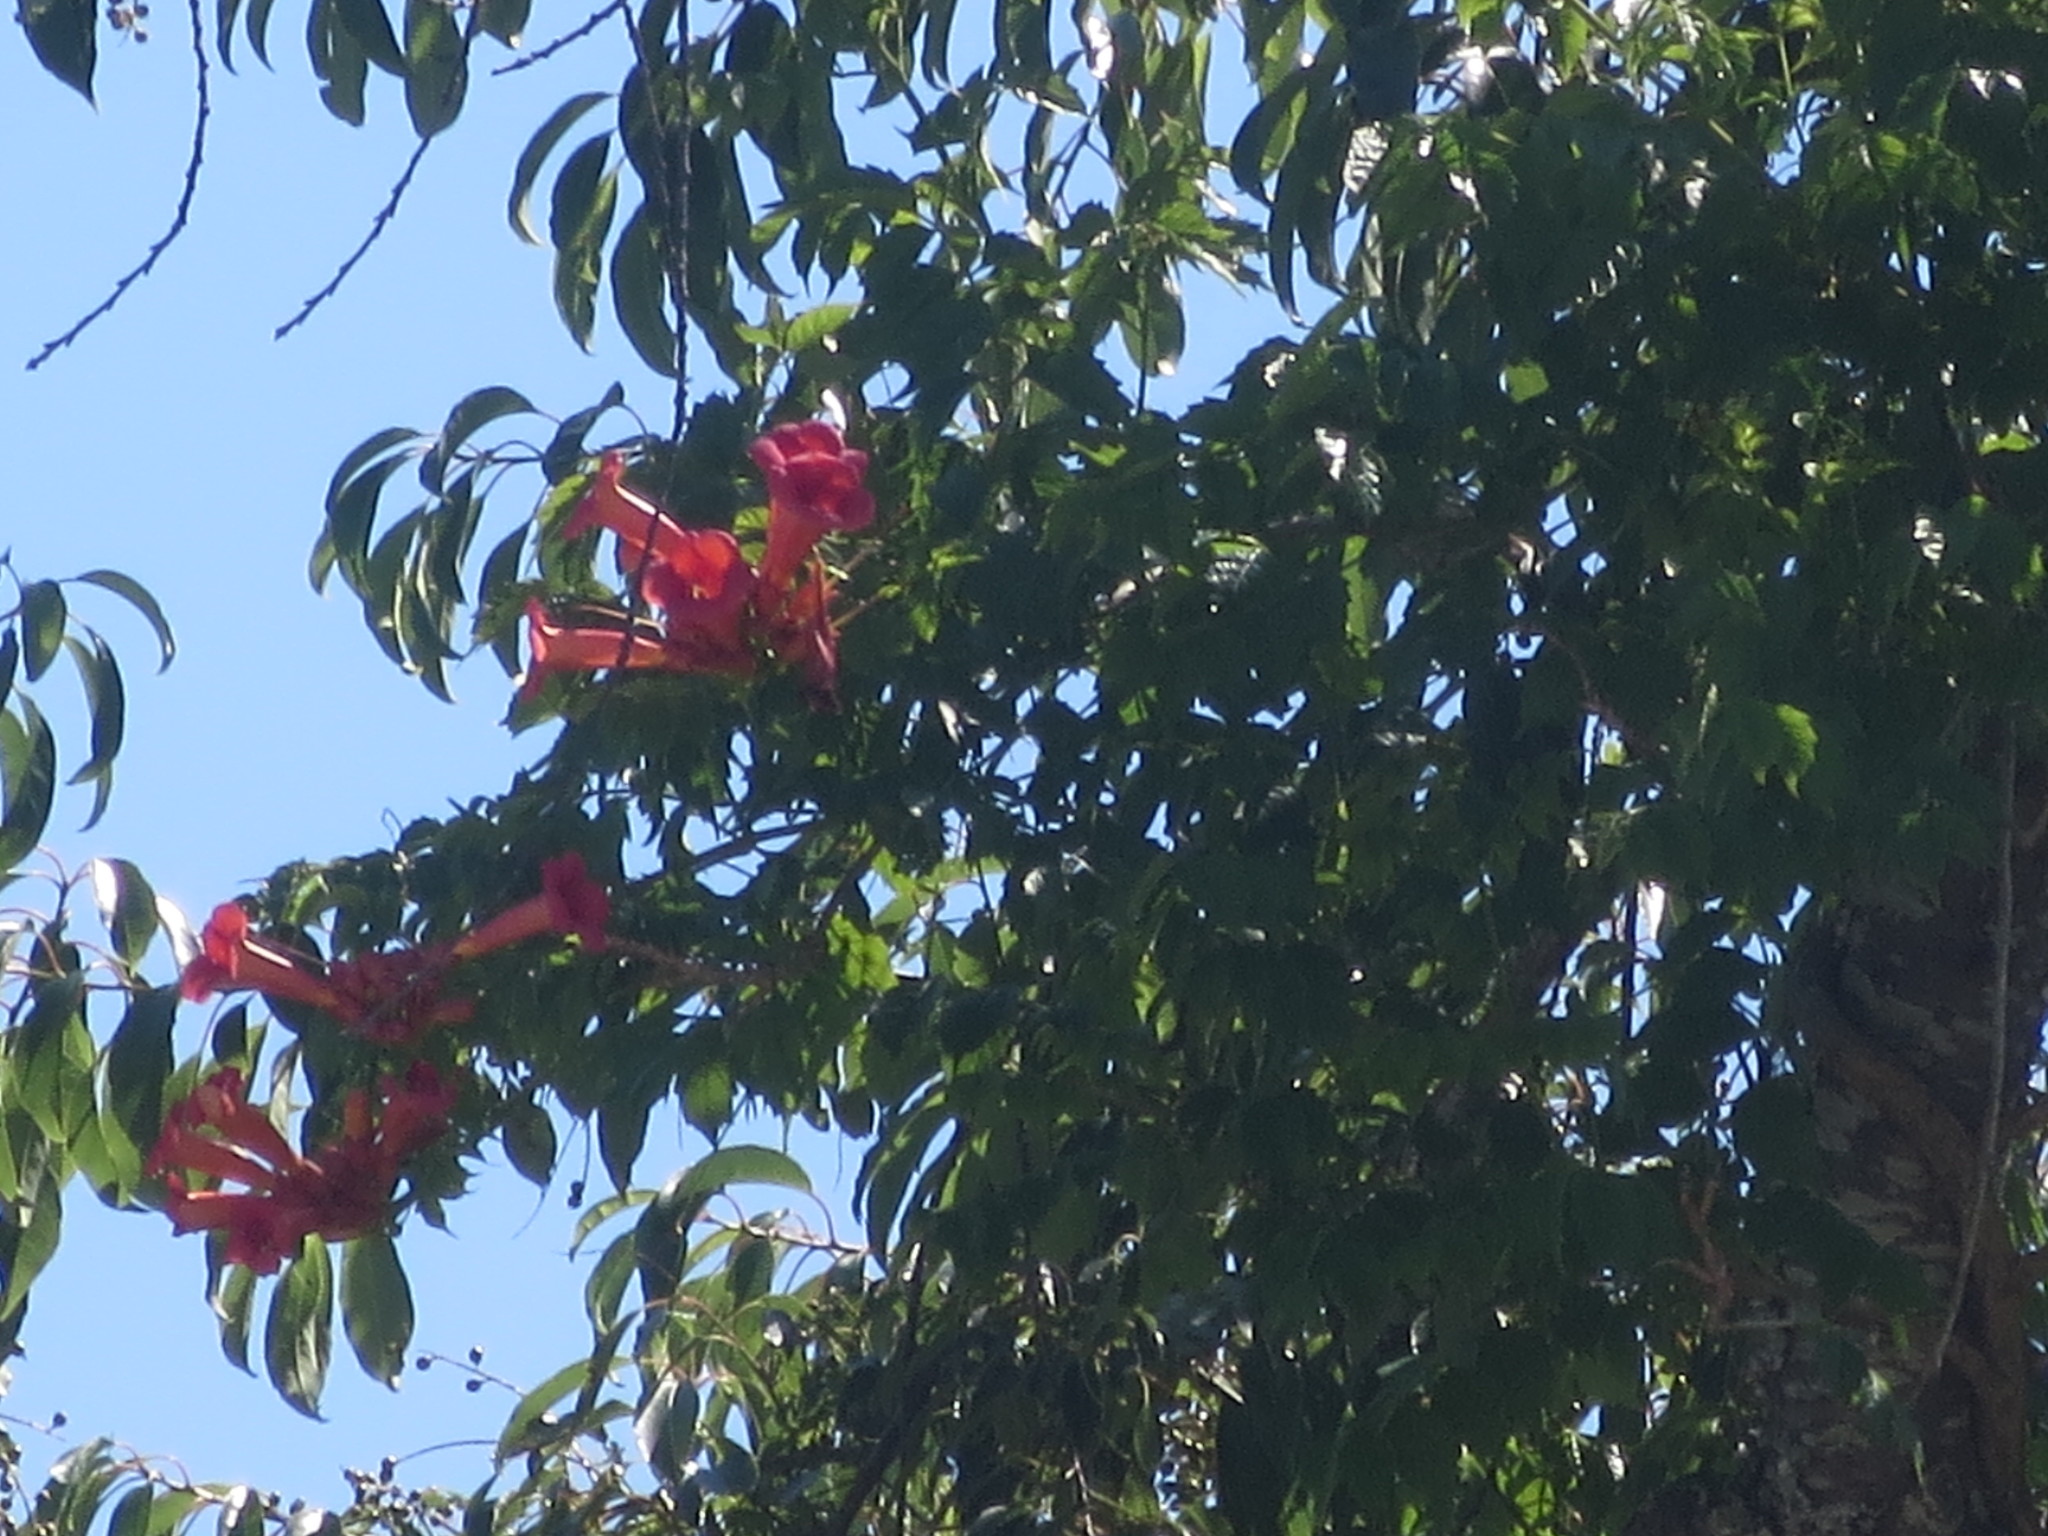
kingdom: Plantae
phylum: Tracheophyta
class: Magnoliopsida
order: Lamiales
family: Bignoniaceae
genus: Campsis
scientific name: Campsis radicans
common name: Trumpet-creeper
